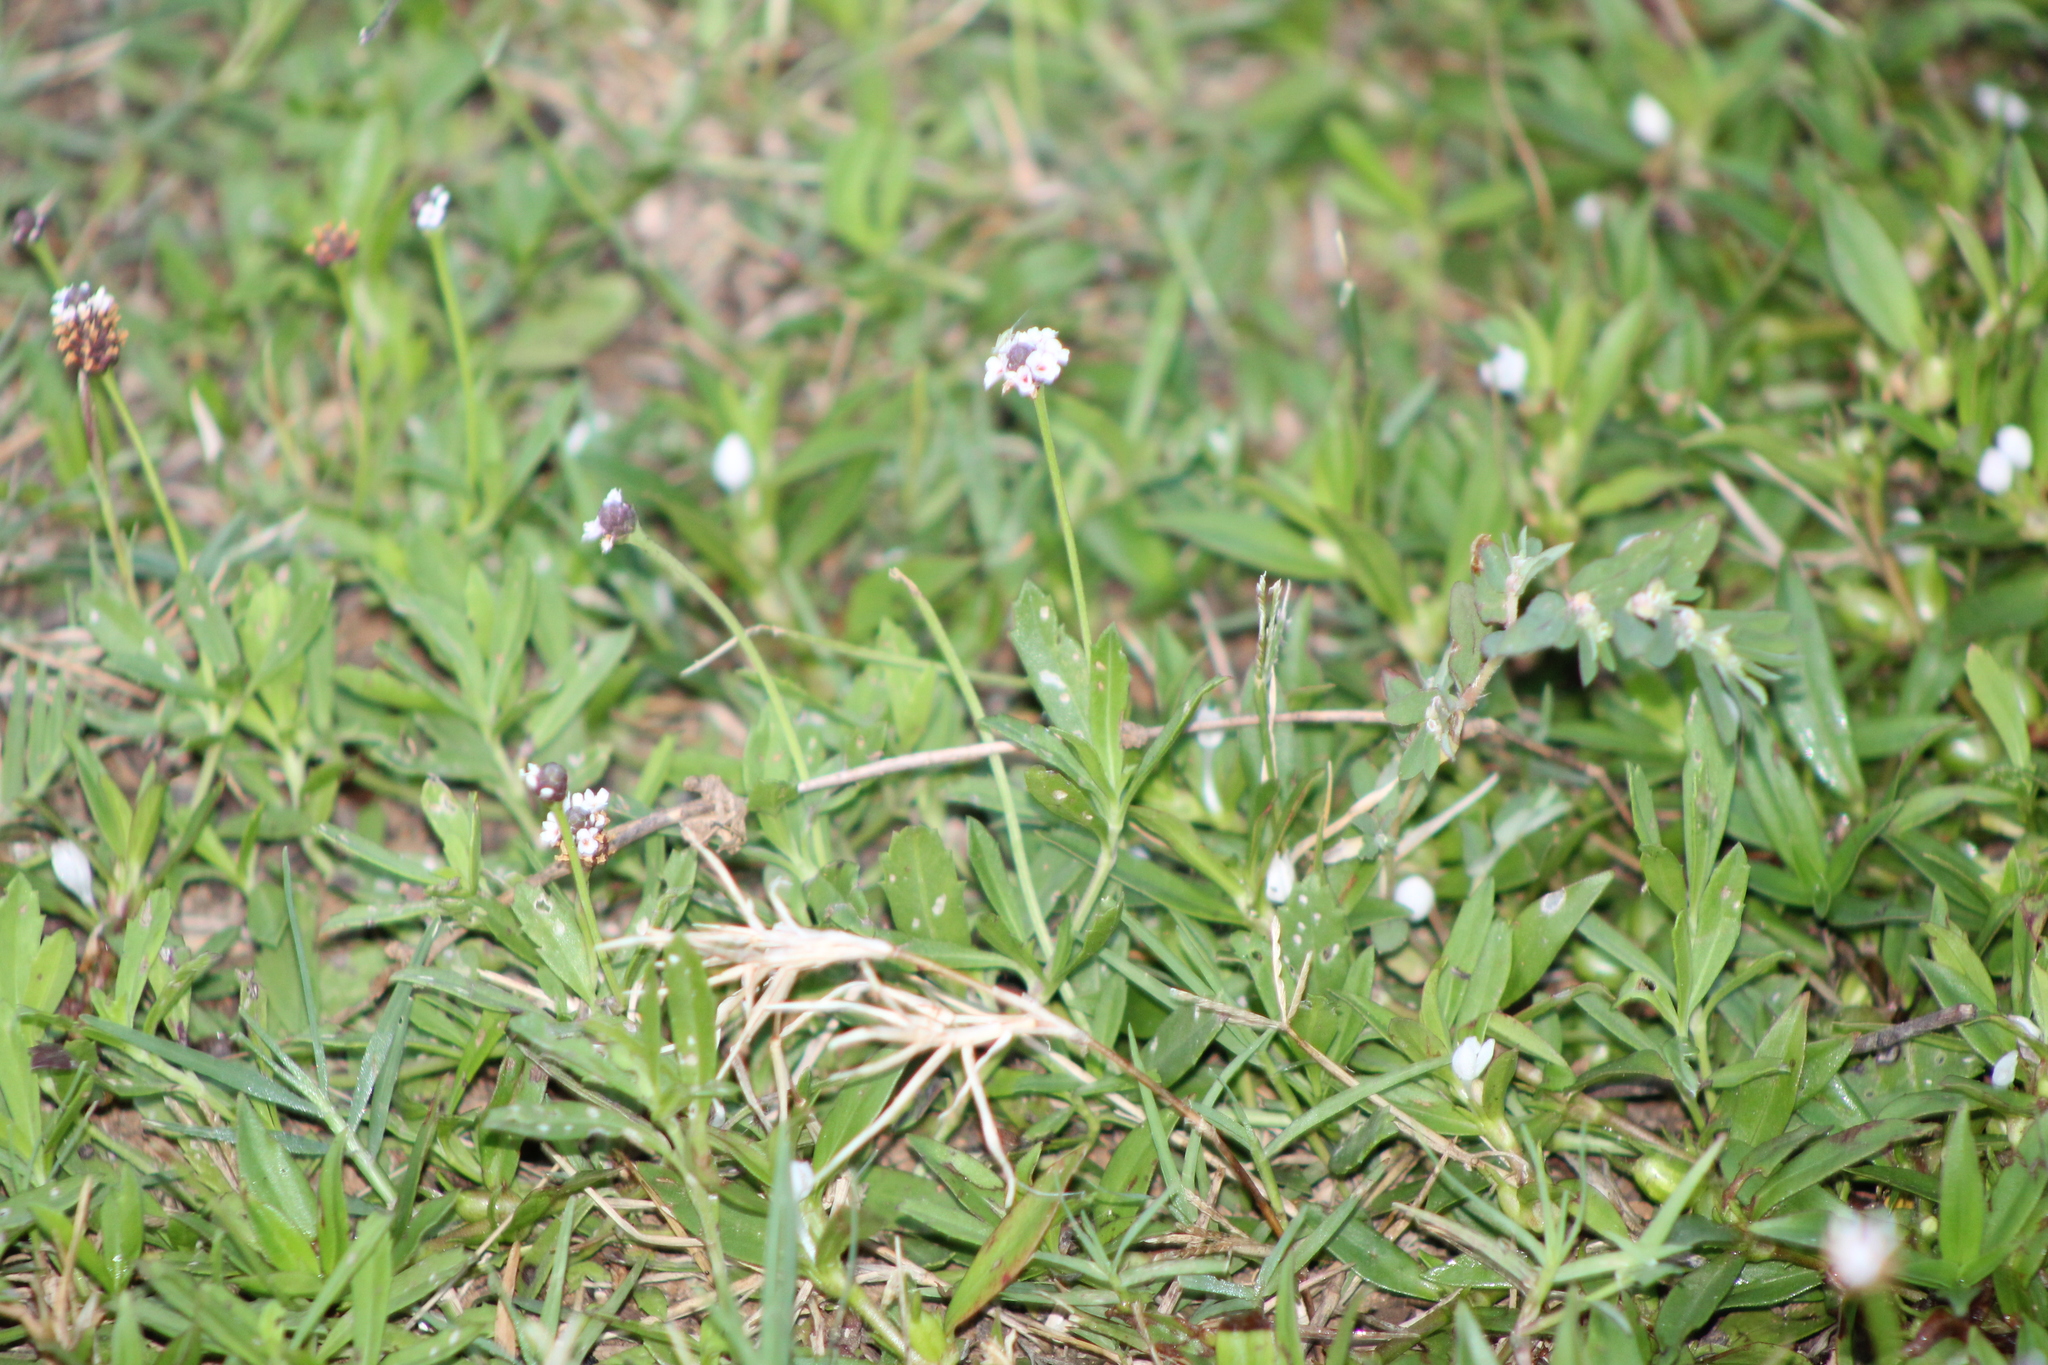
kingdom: Plantae
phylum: Tracheophyta
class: Magnoliopsida
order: Lamiales
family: Verbenaceae
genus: Phyla
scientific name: Phyla nodiflora
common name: Frogfruit
